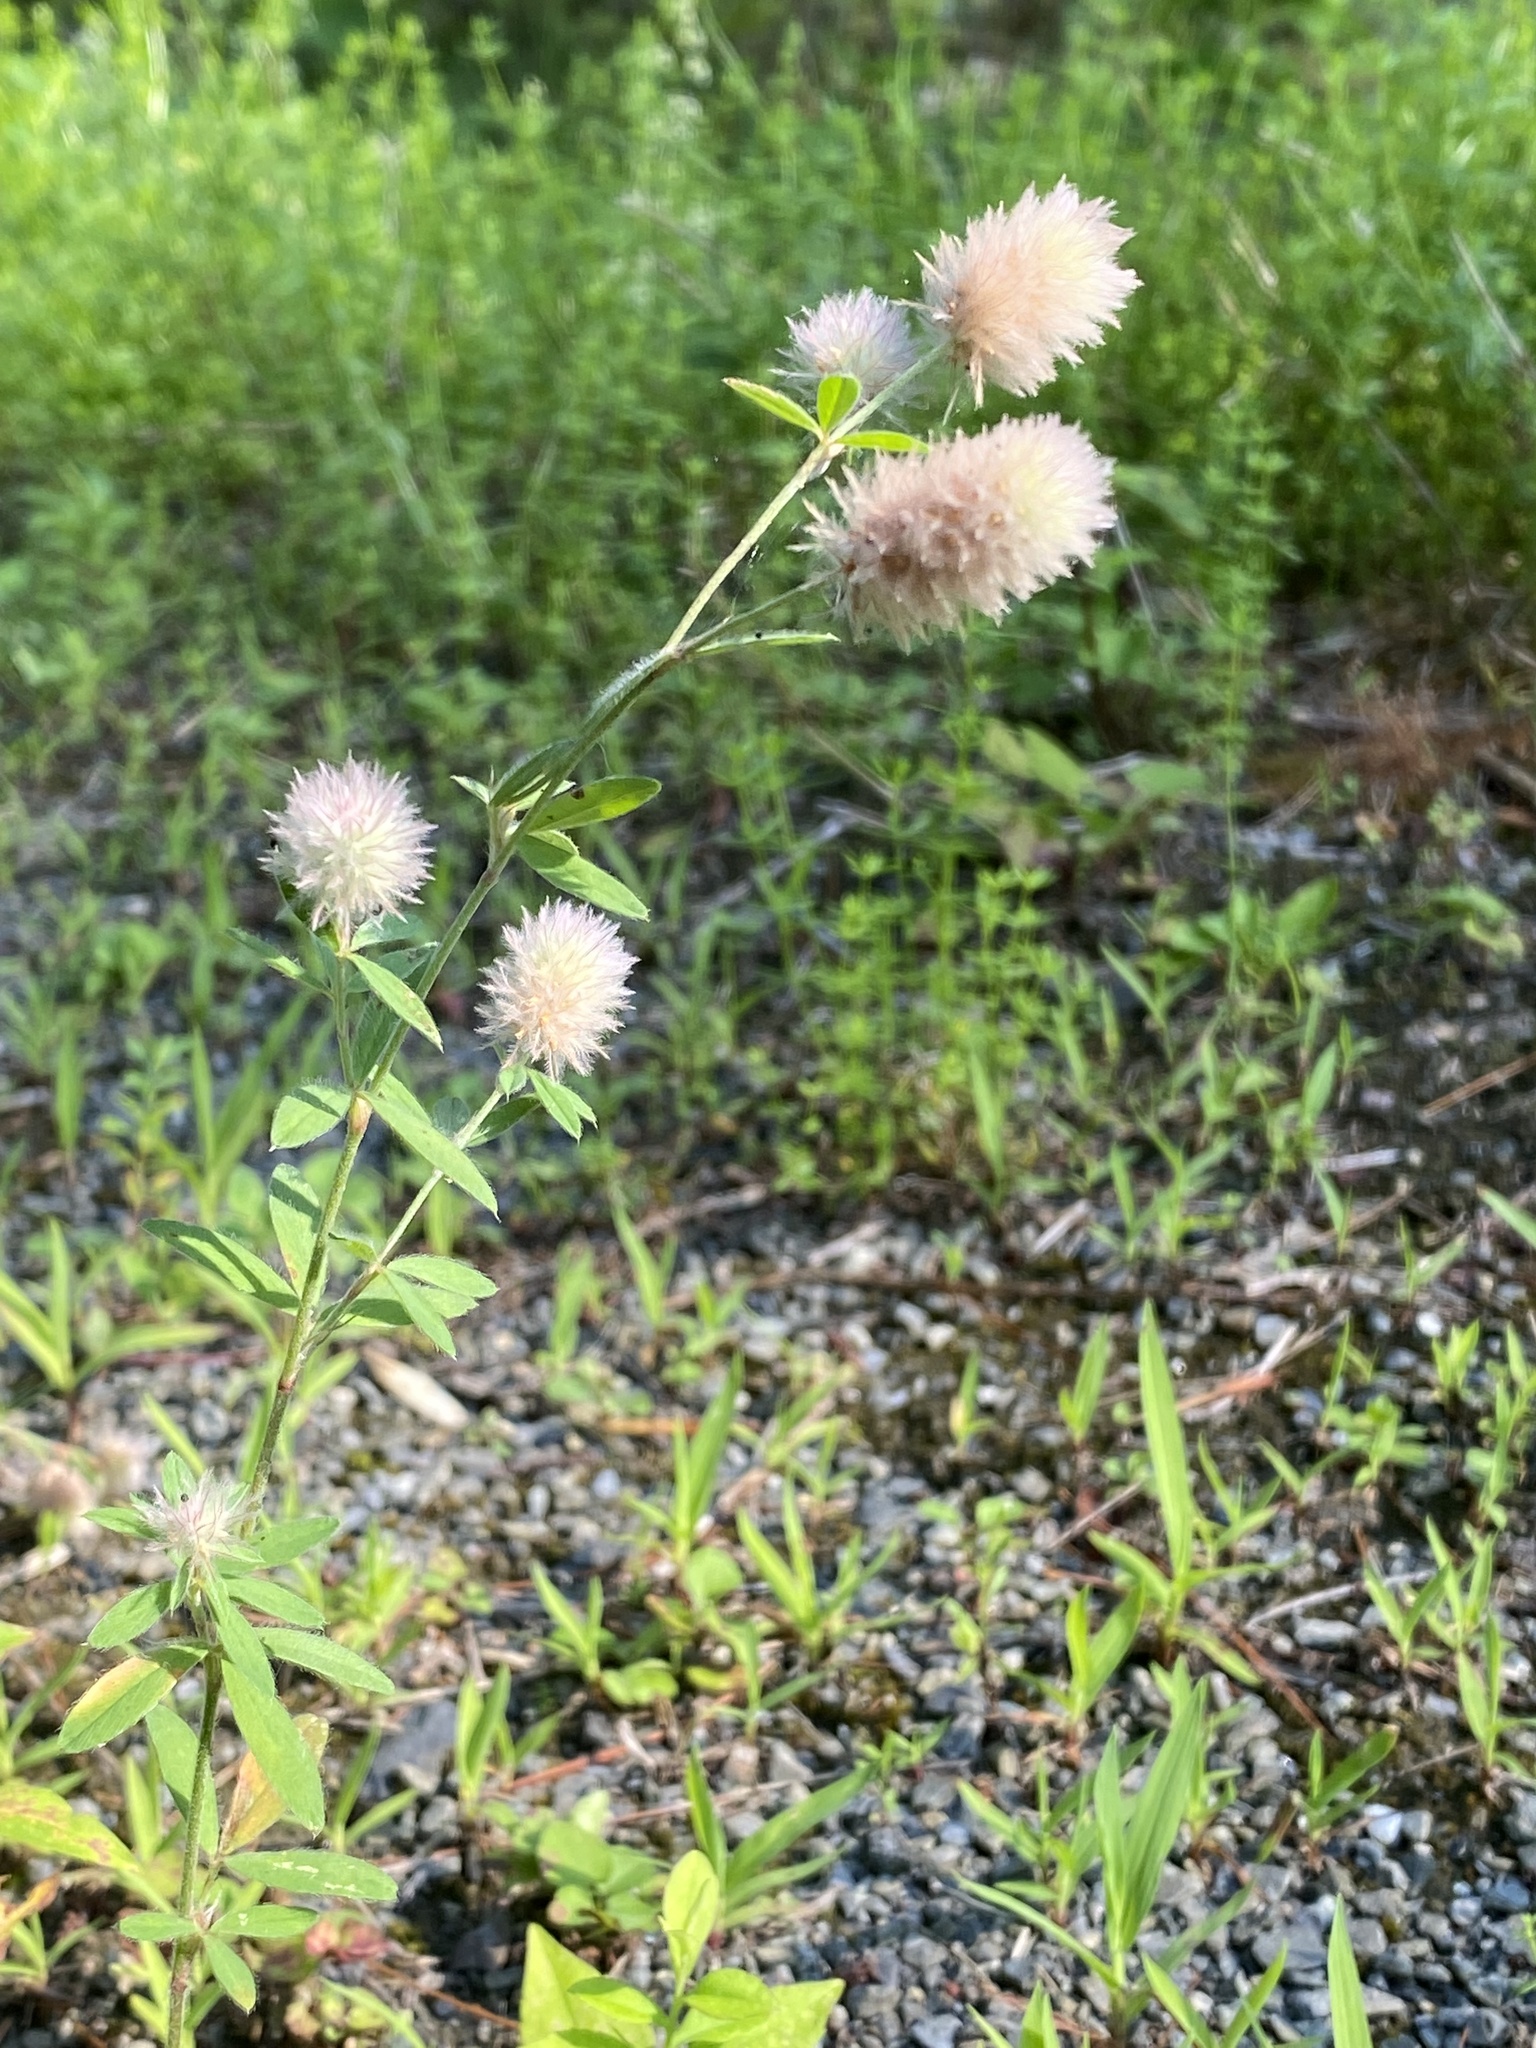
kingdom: Plantae
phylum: Tracheophyta
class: Magnoliopsida
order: Fabales
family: Fabaceae
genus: Trifolium
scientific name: Trifolium arvense
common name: Hare's-foot clover
